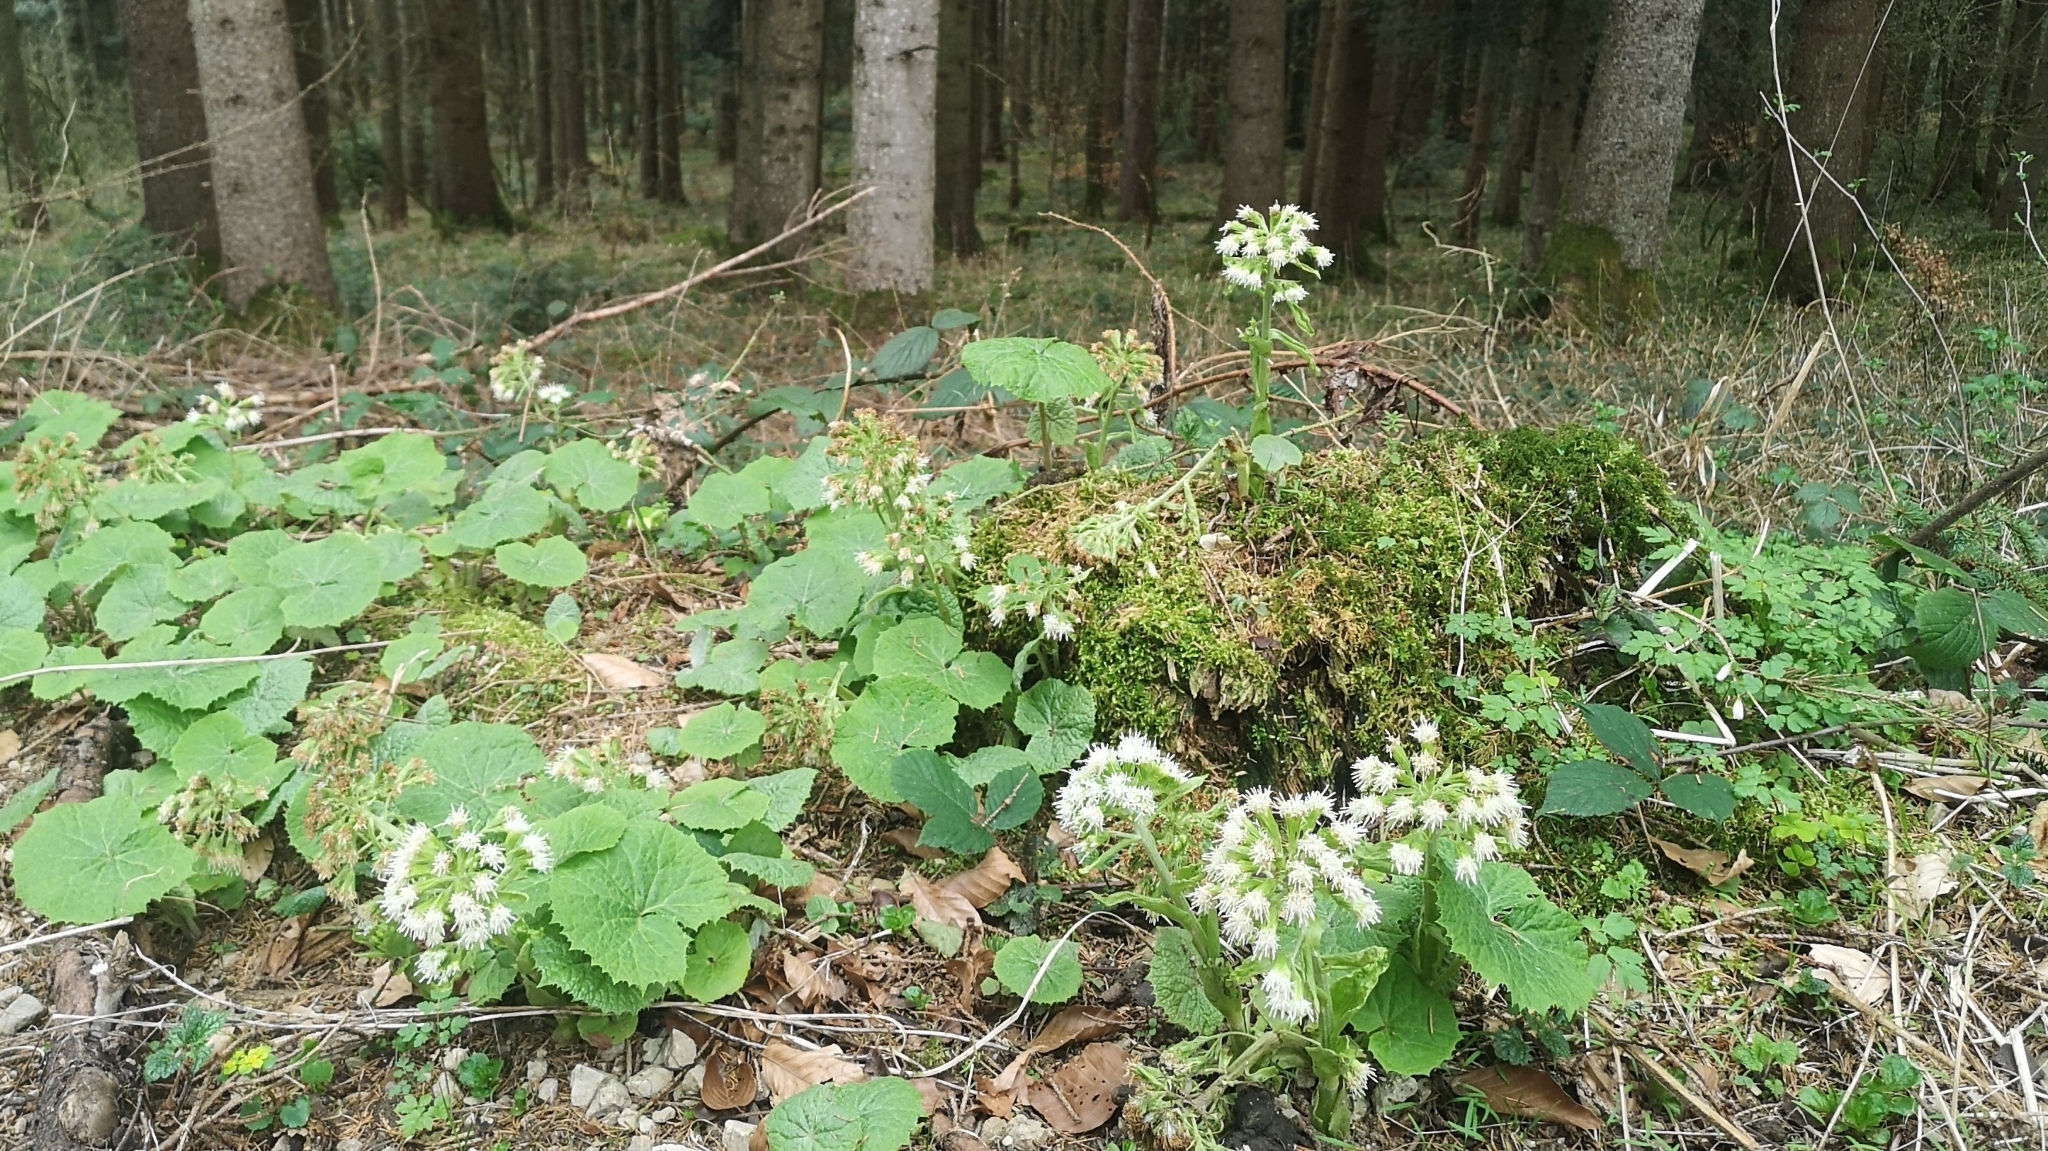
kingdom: Plantae
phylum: Tracheophyta
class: Magnoliopsida
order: Asterales
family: Asteraceae
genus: Petasites
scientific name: Petasites albus
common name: White butterbur
